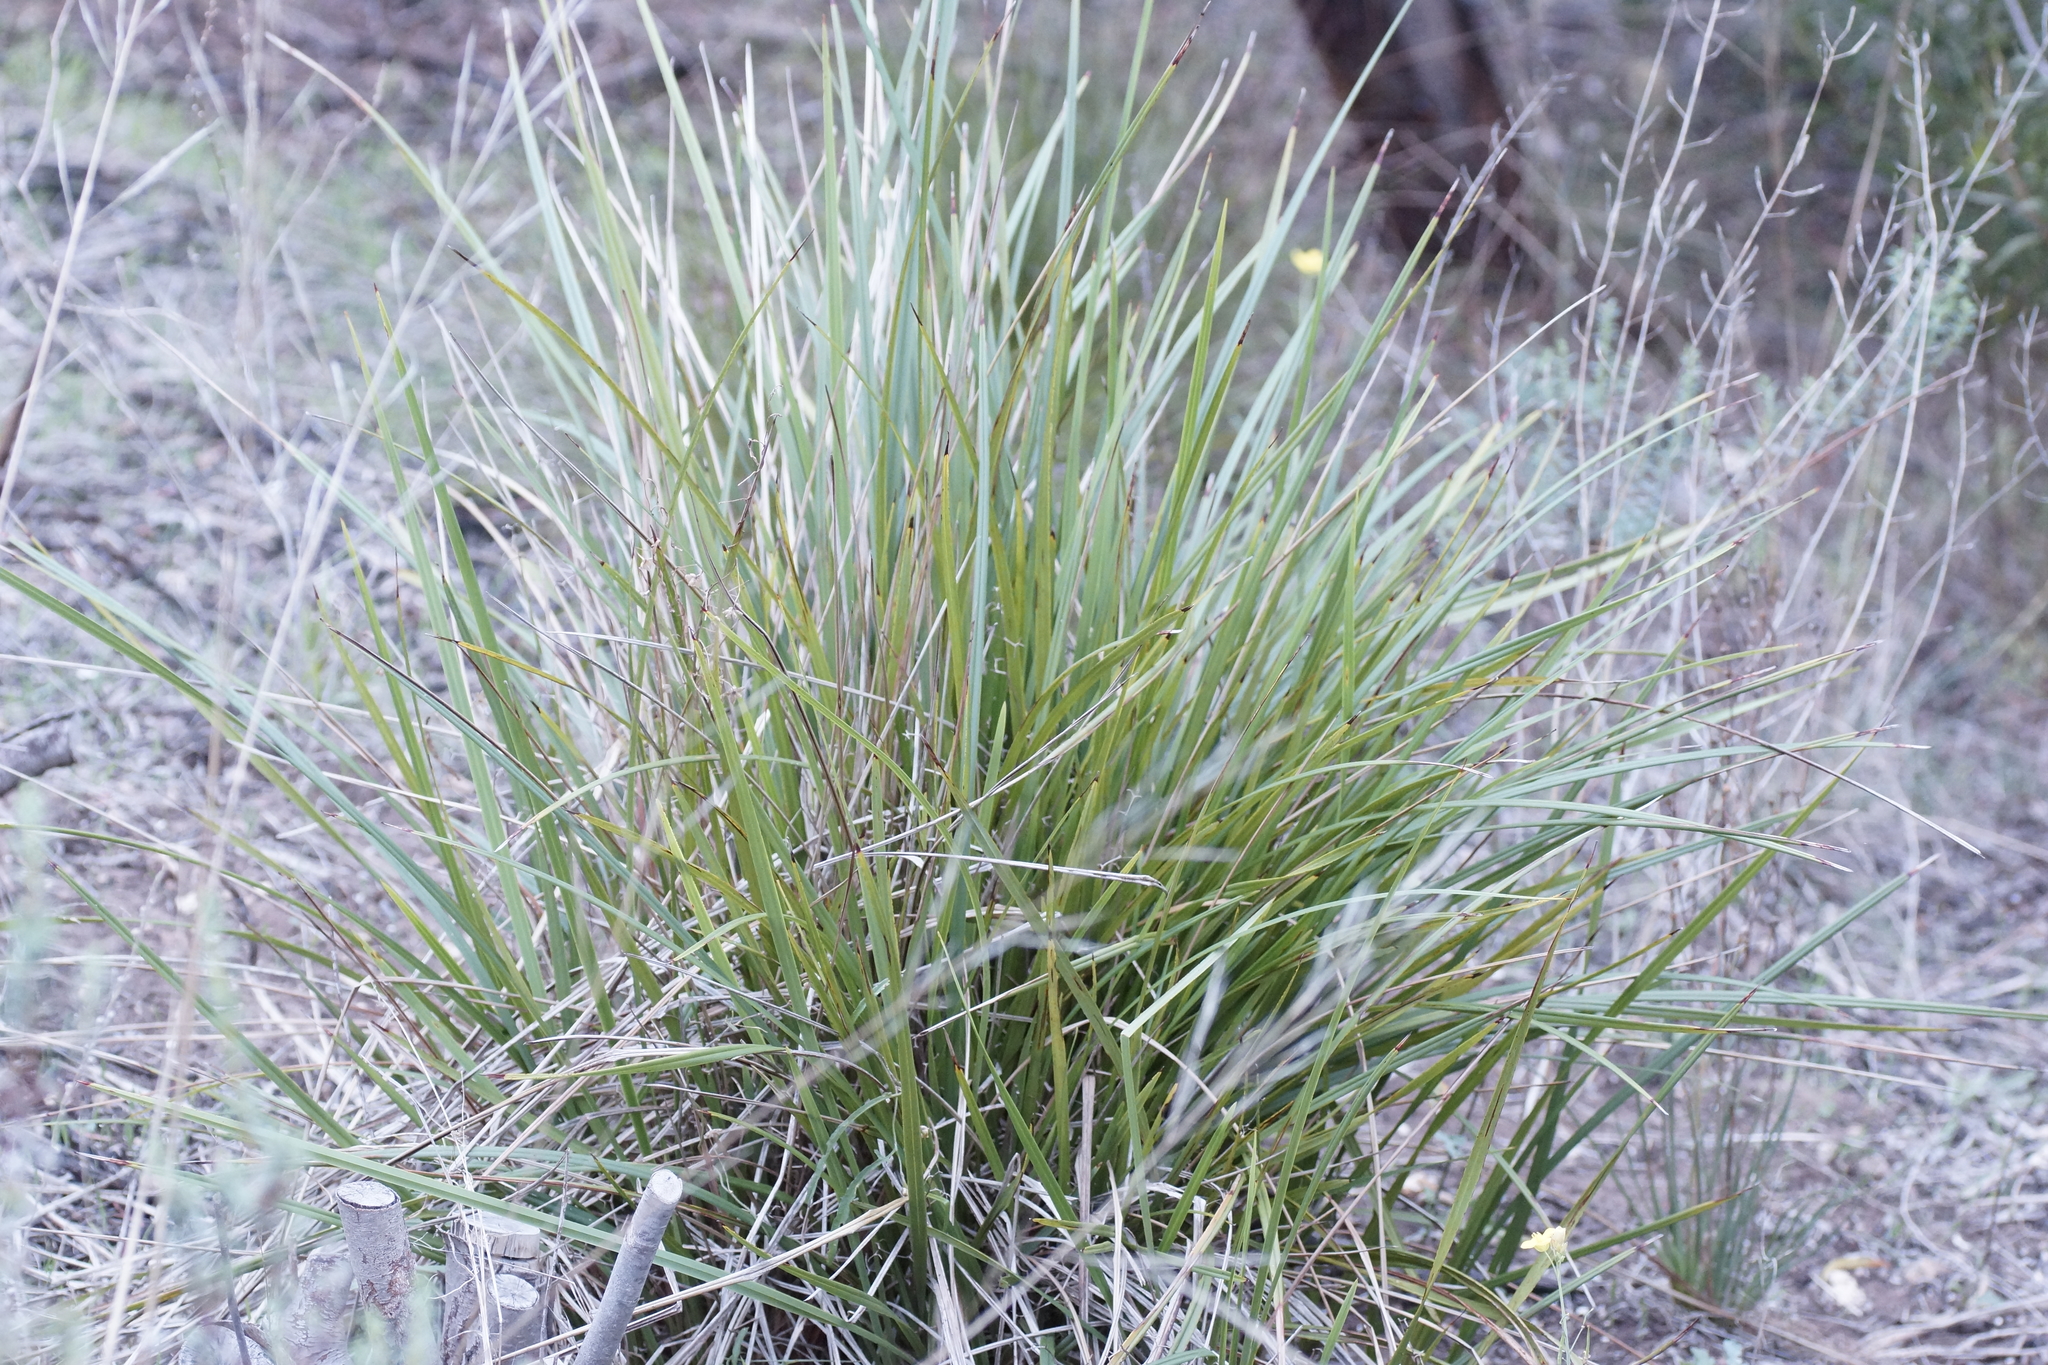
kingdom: Plantae
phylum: Tracheophyta
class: Liliopsida
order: Asparagales
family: Asphodelaceae
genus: Dianella
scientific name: Dianella brevicaulis
